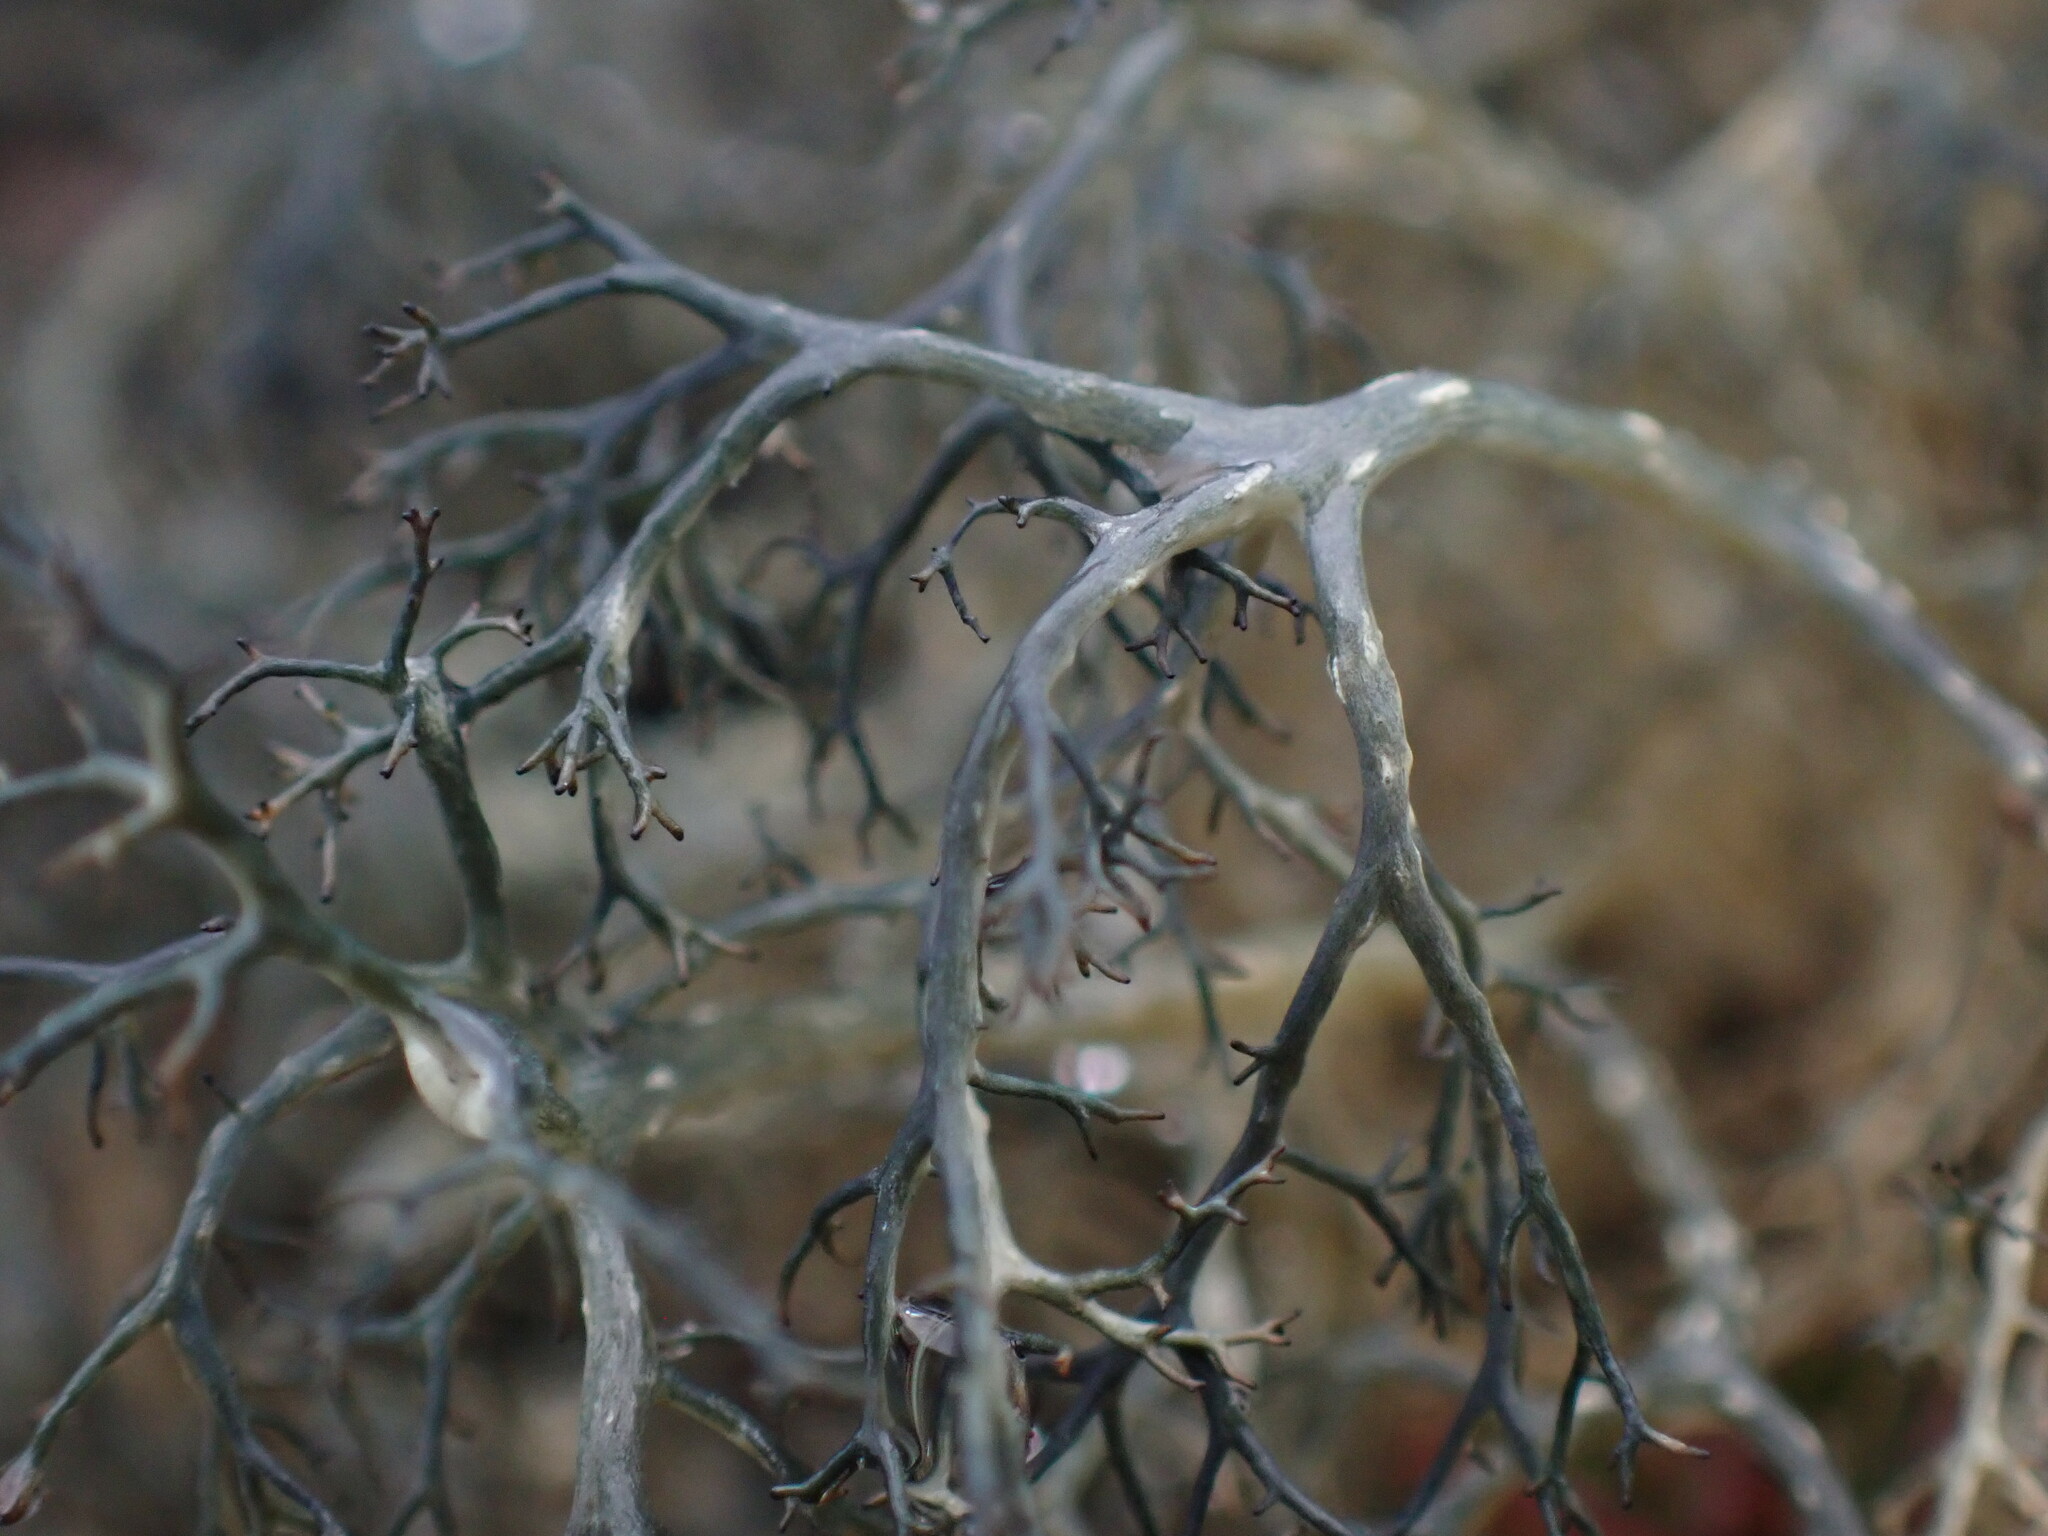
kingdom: Fungi
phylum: Ascomycota
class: Lecanoromycetes
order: Lecanorales
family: Parmeliaceae
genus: Gowardia
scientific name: Gowardia nigricans
